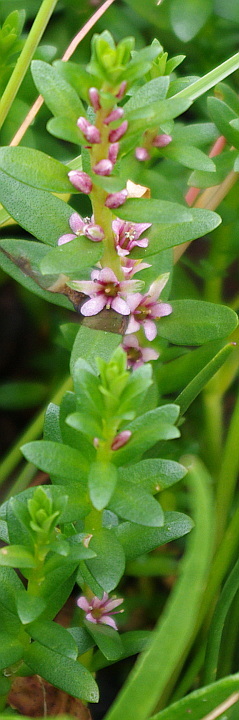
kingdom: Plantae
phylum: Tracheophyta
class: Magnoliopsida
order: Ericales
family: Primulaceae
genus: Lysimachia
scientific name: Lysimachia maritima
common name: Sea milkwort
